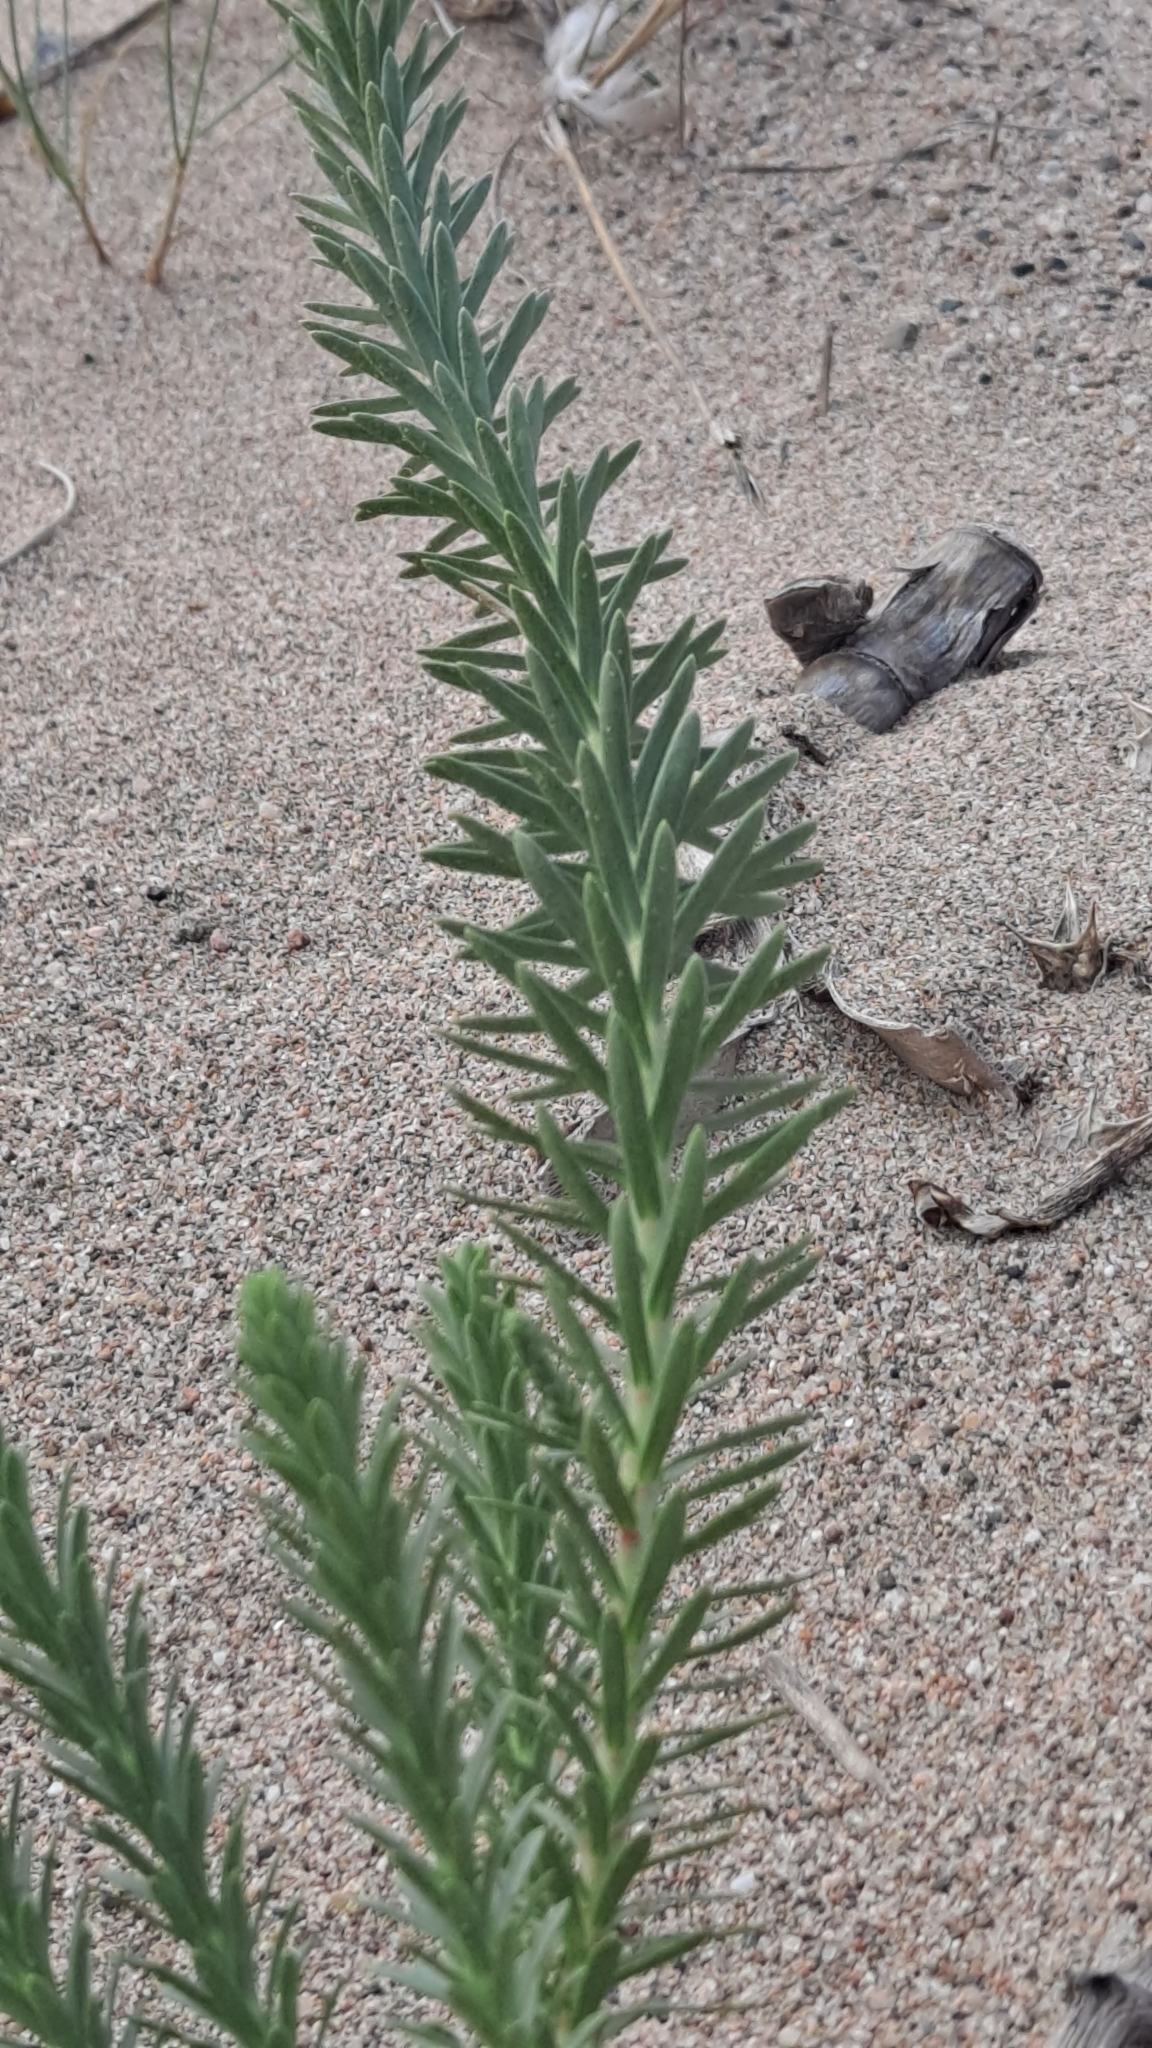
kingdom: Plantae
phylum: Tracheophyta
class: Magnoliopsida
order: Malpighiales
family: Euphorbiaceae
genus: Euphorbia
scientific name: Euphorbia paralias
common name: Sea spurge
